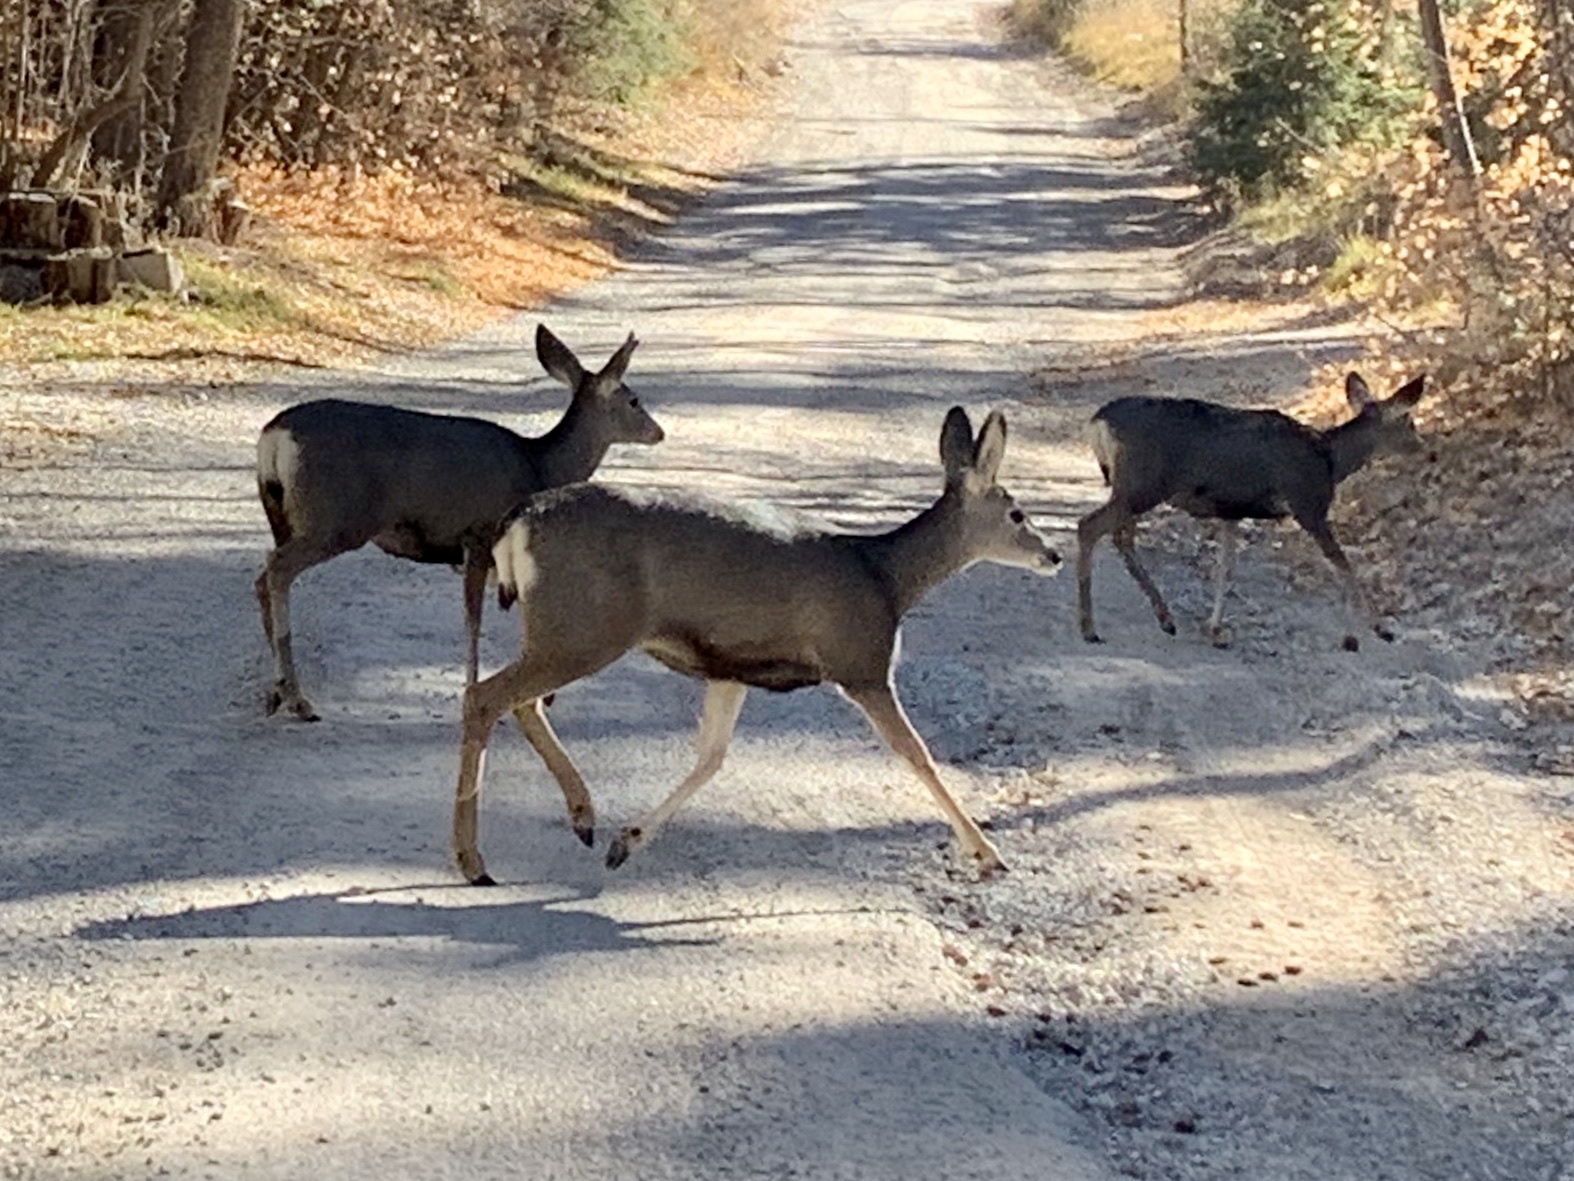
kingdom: Animalia
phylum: Chordata
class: Mammalia
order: Artiodactyla
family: Cervidae
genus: Odocoileus
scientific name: Odocoileus hemionus
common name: Mule deer
